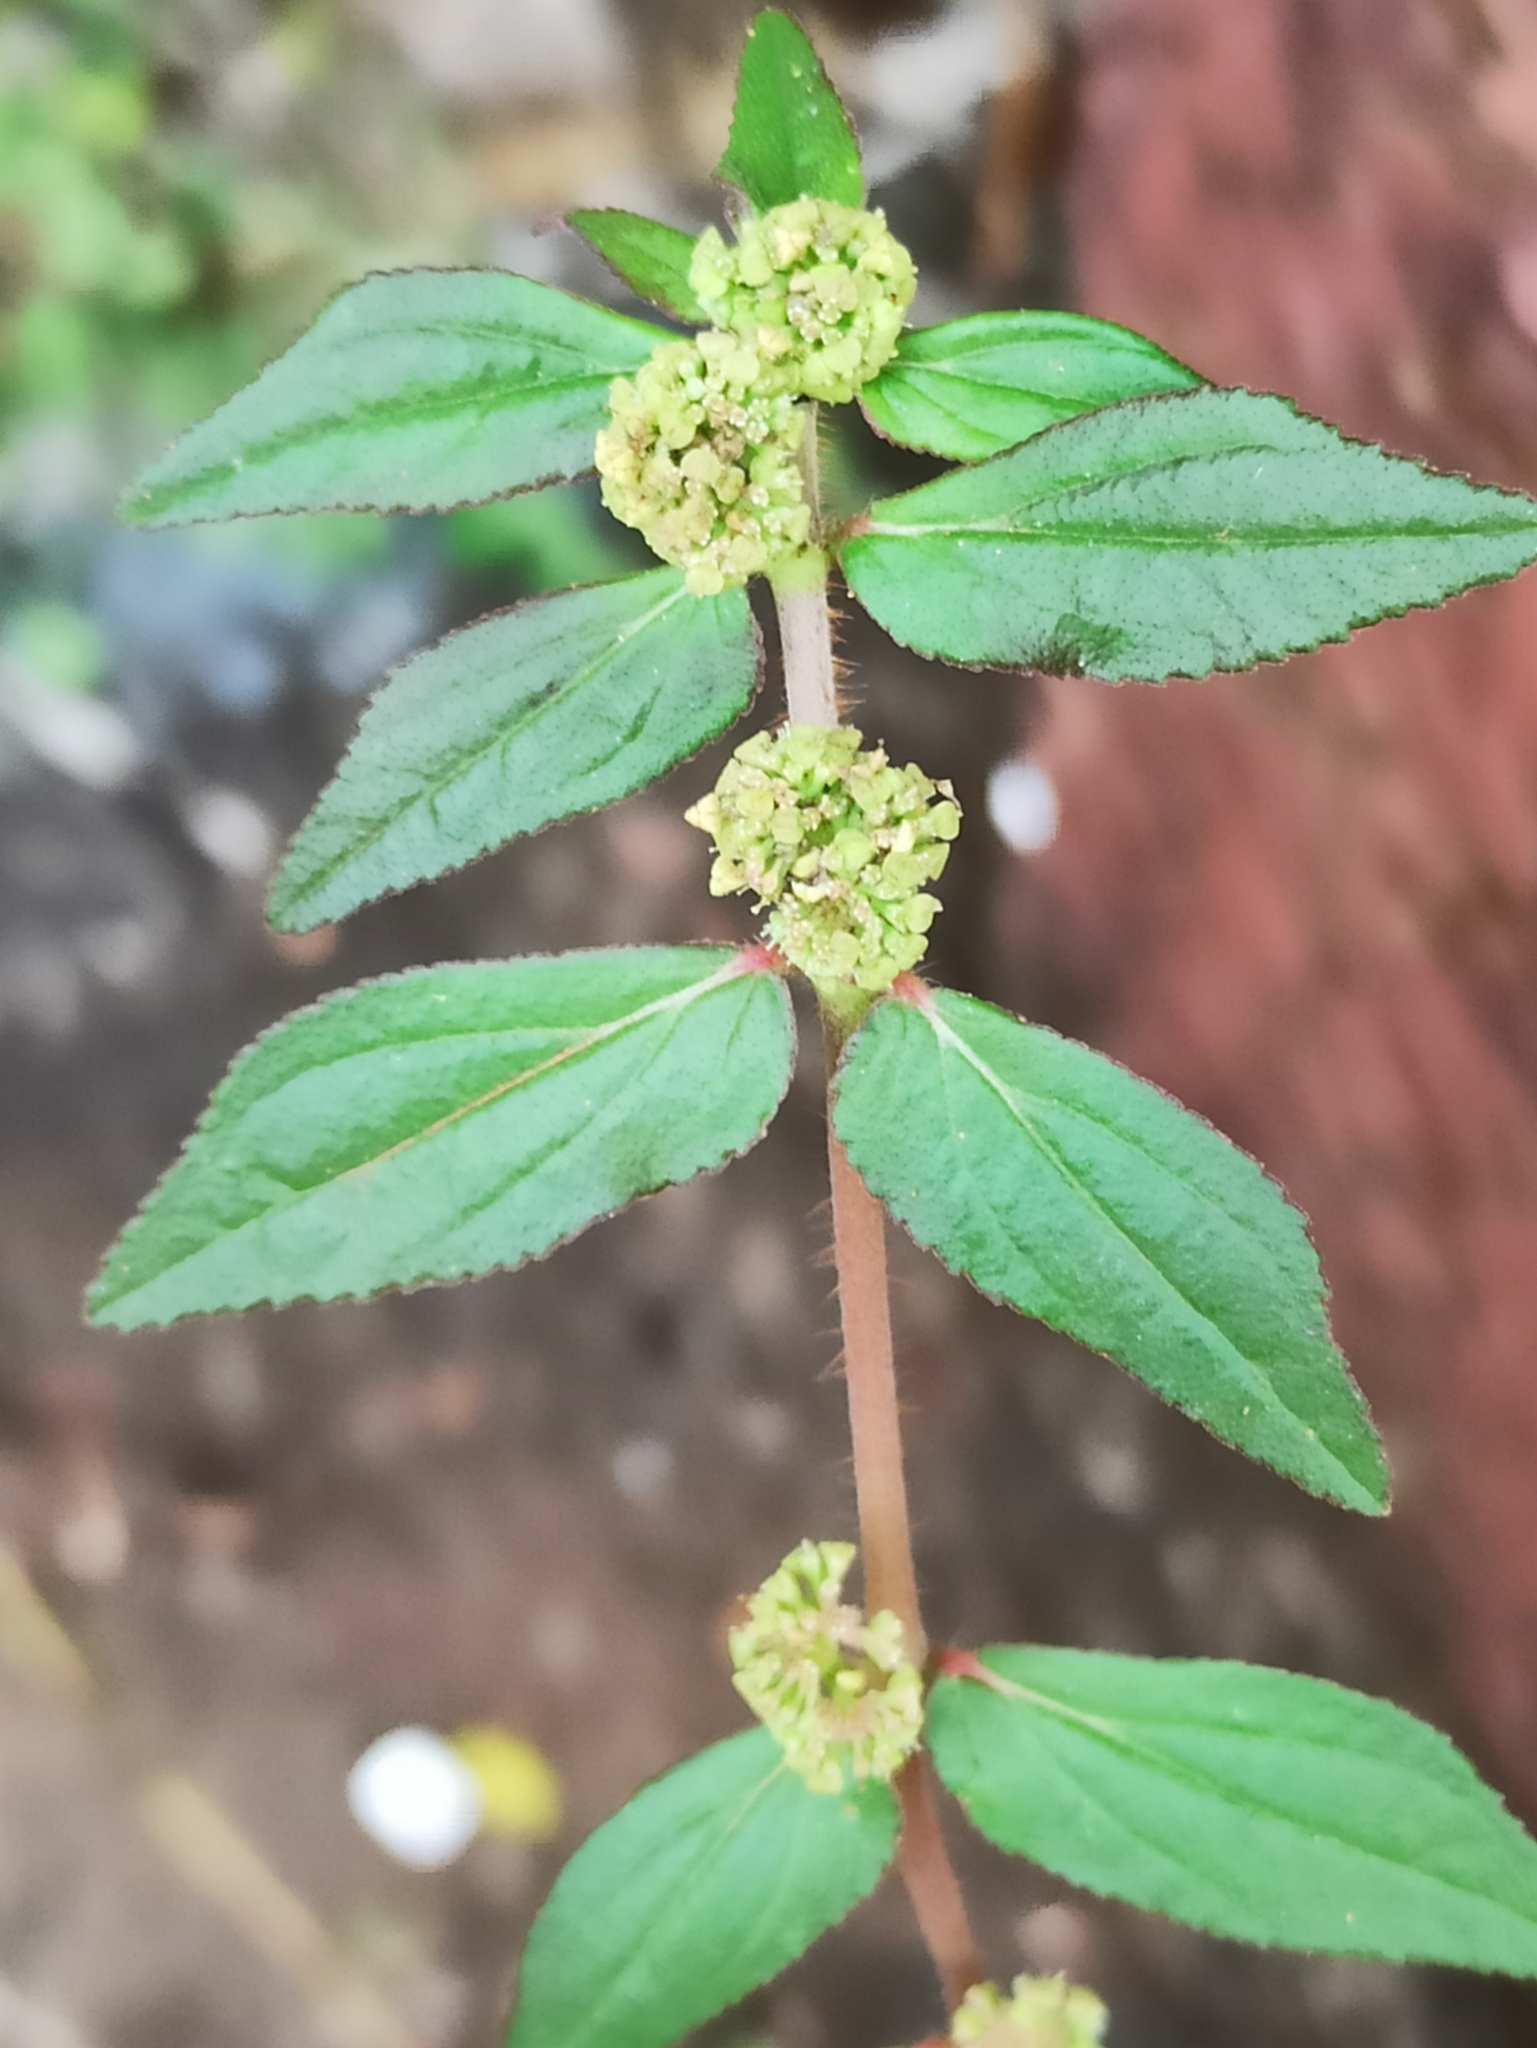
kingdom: Plantae
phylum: Tracheophyta
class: Magnoliopsida
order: Malpighiales
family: Euphorbiaceae
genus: Euphorbia
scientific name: Euphorbia hirta
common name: Pillpod sandmat
